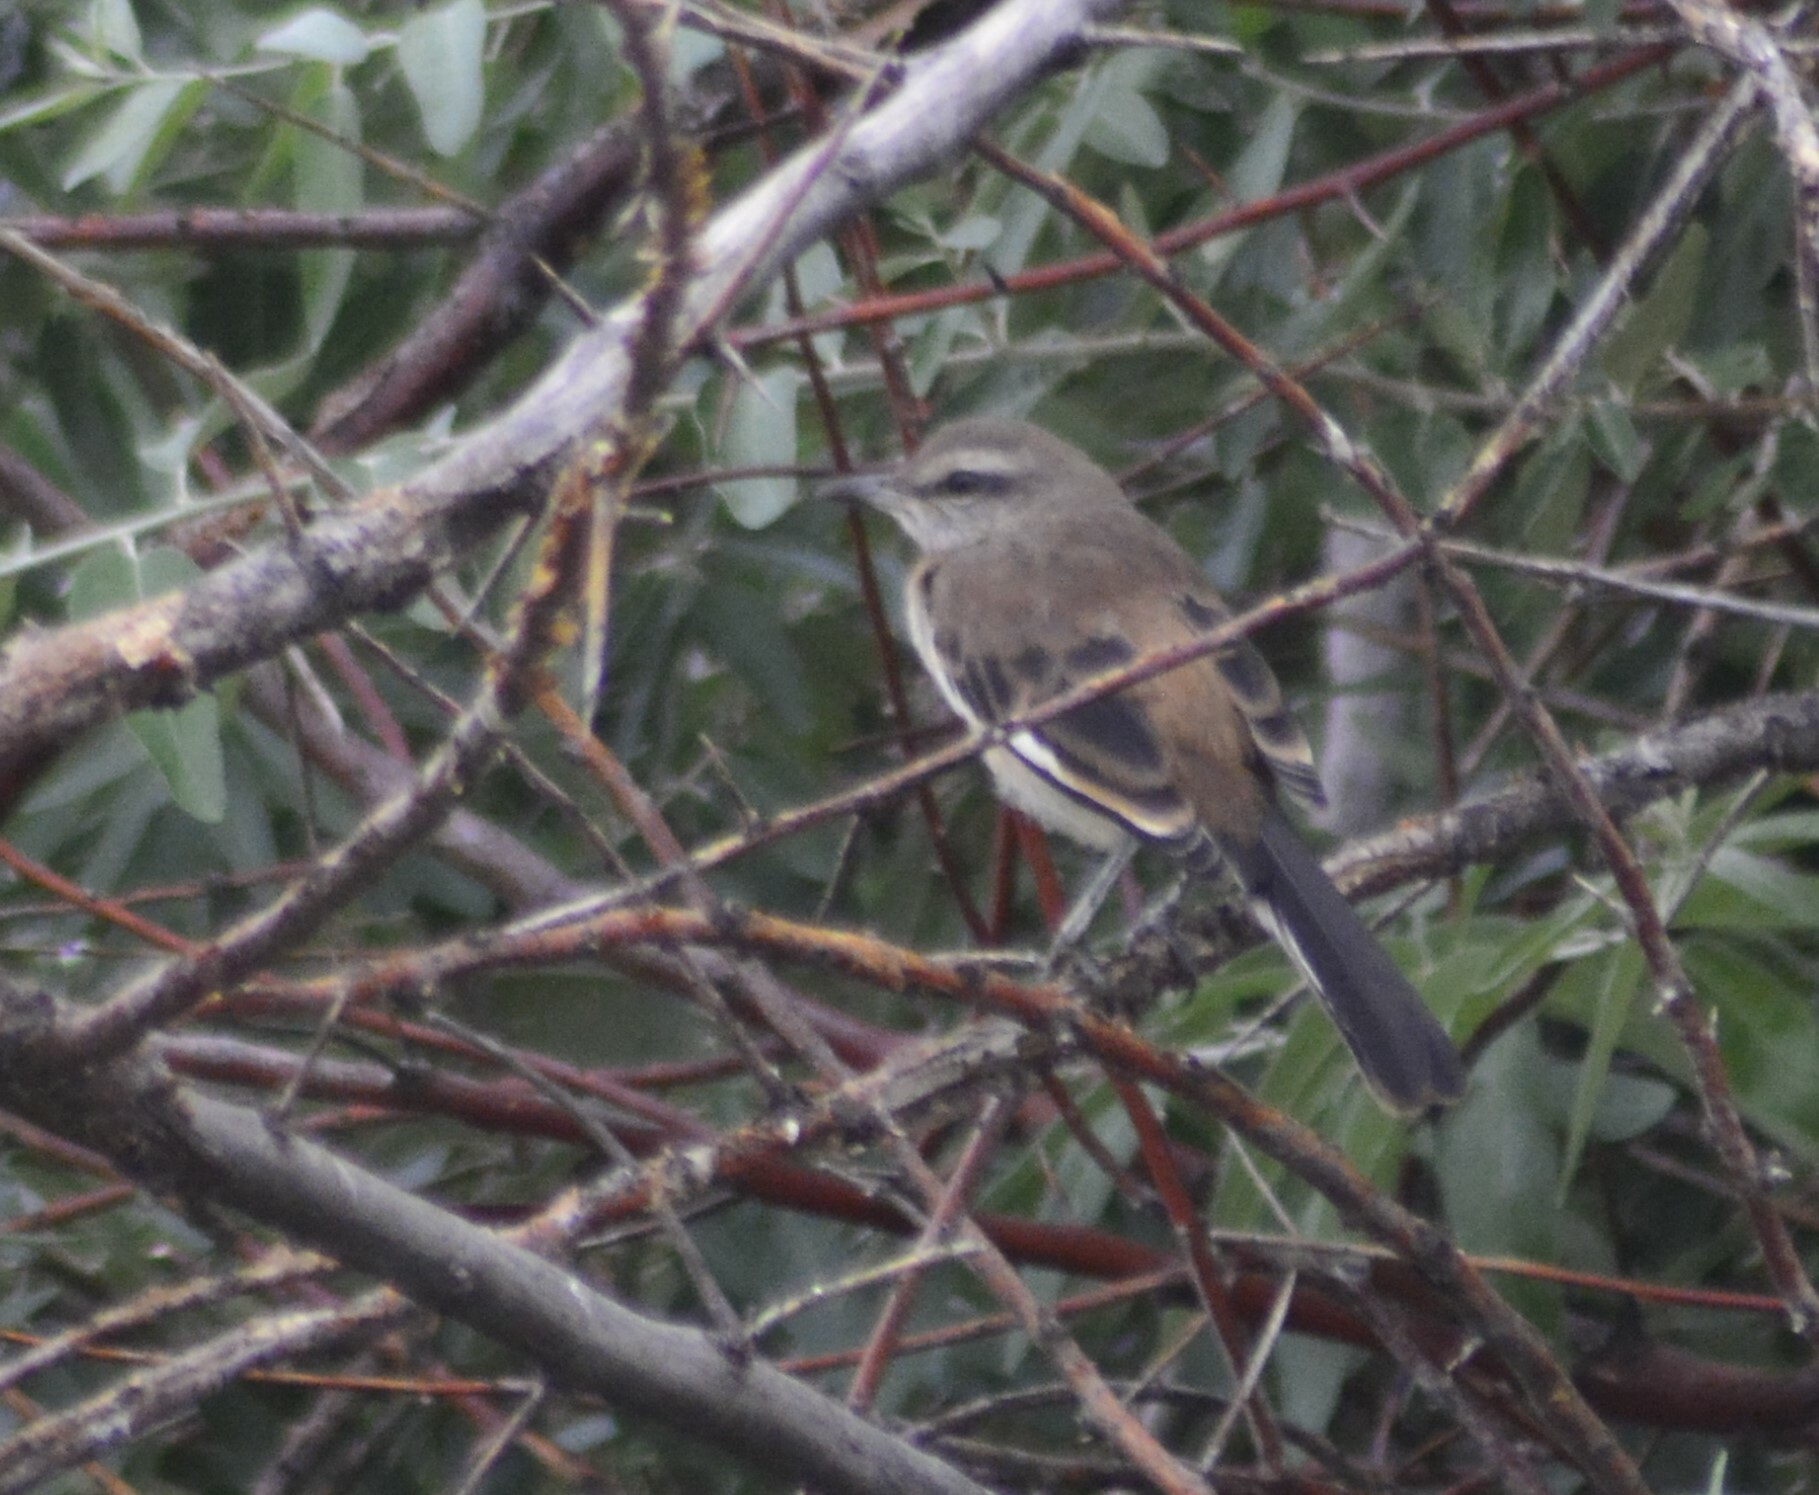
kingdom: Animalia
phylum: Chordata
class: Aves
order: Passeriformes
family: Mimidae
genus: Mimus
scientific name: Mimus triurus
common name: White-banded mockingbird
